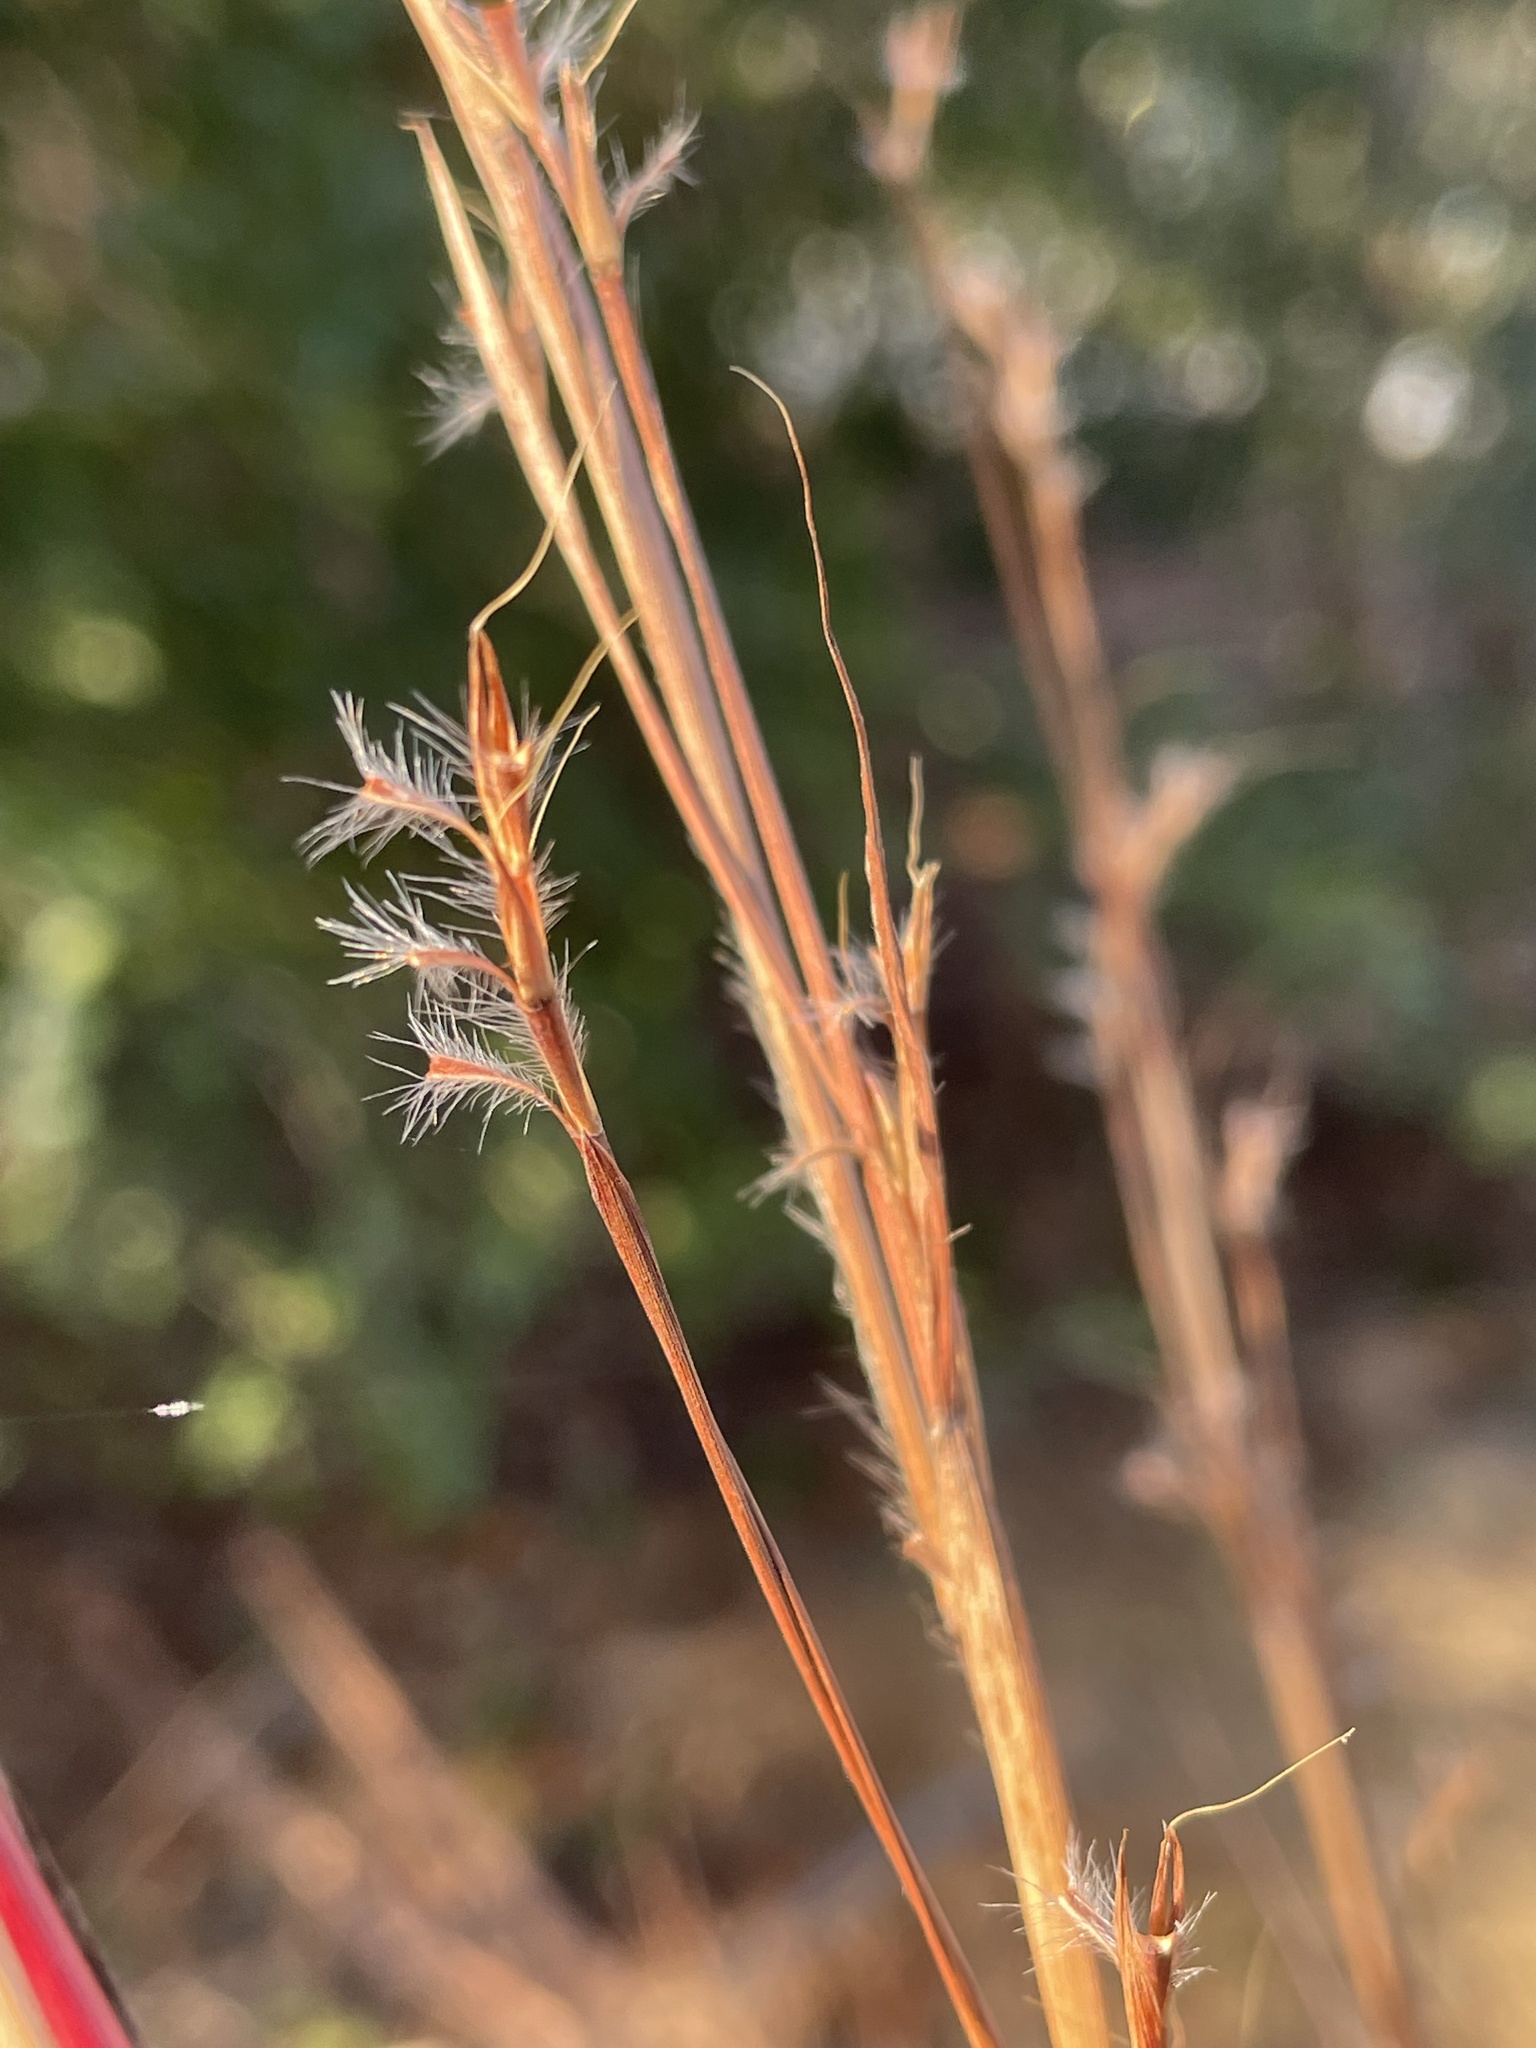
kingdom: Plantae
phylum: Tracheophyta
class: Liliopsida
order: Poales
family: Poaceae
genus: Schizachyrium
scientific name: Schizachyrium scoparium
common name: Little bluestem
